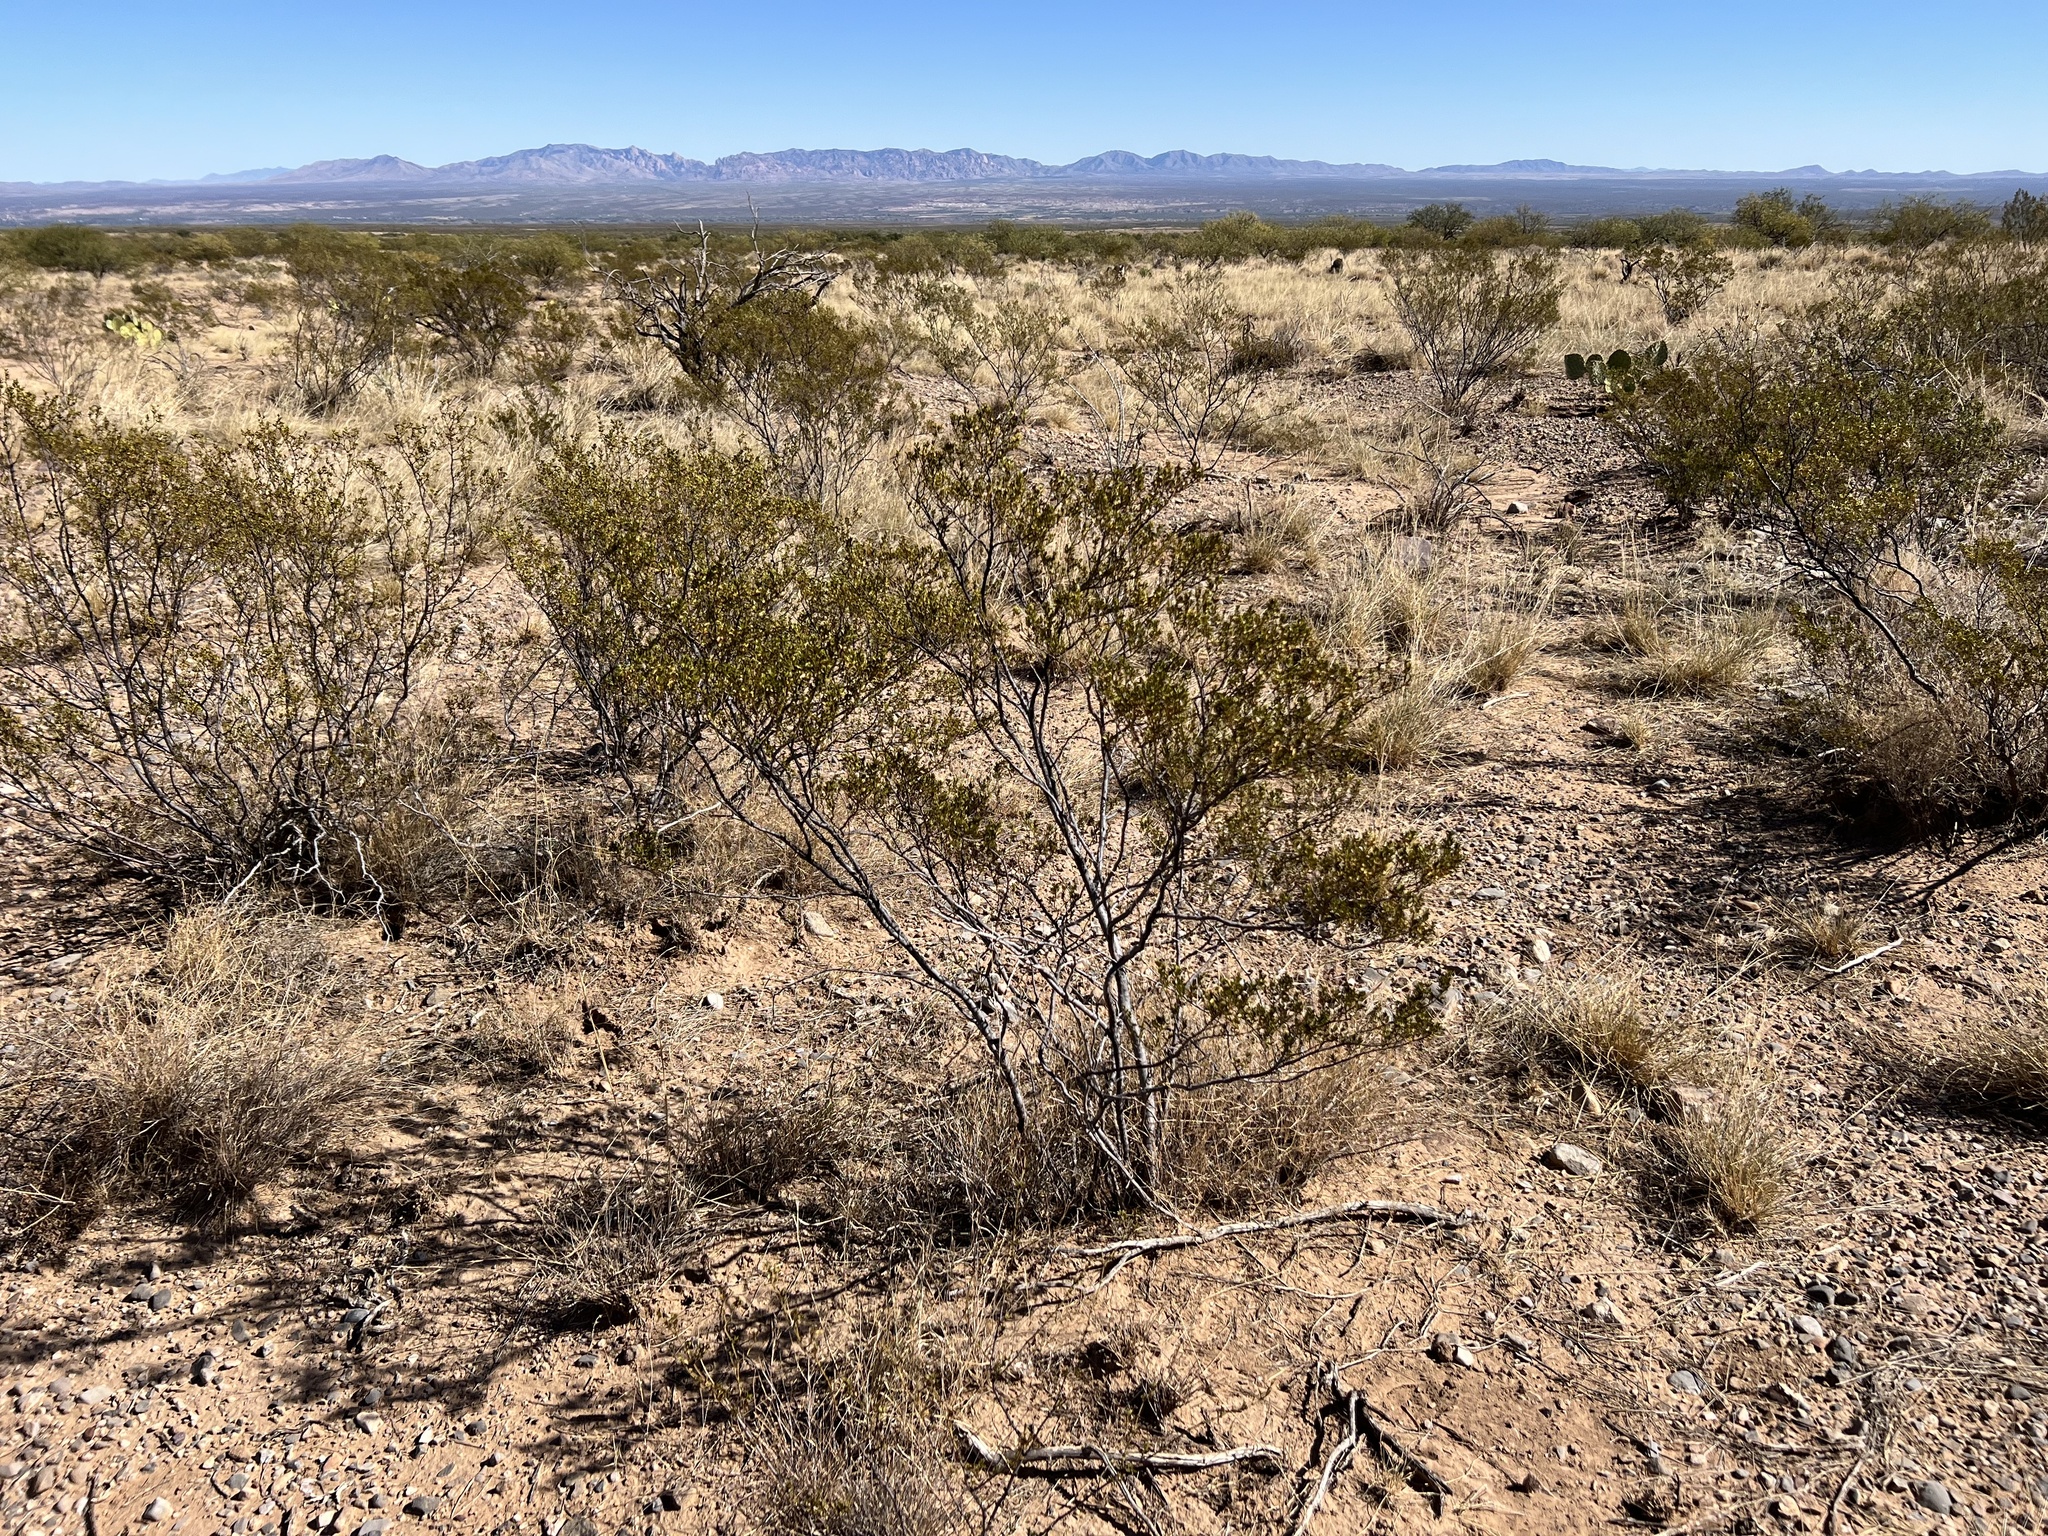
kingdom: Plantae
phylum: Tracheophyta
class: Magnoliopsida
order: Zygophyllales
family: Zygophyllaceae
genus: Larrea
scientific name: Larrea tridentata
